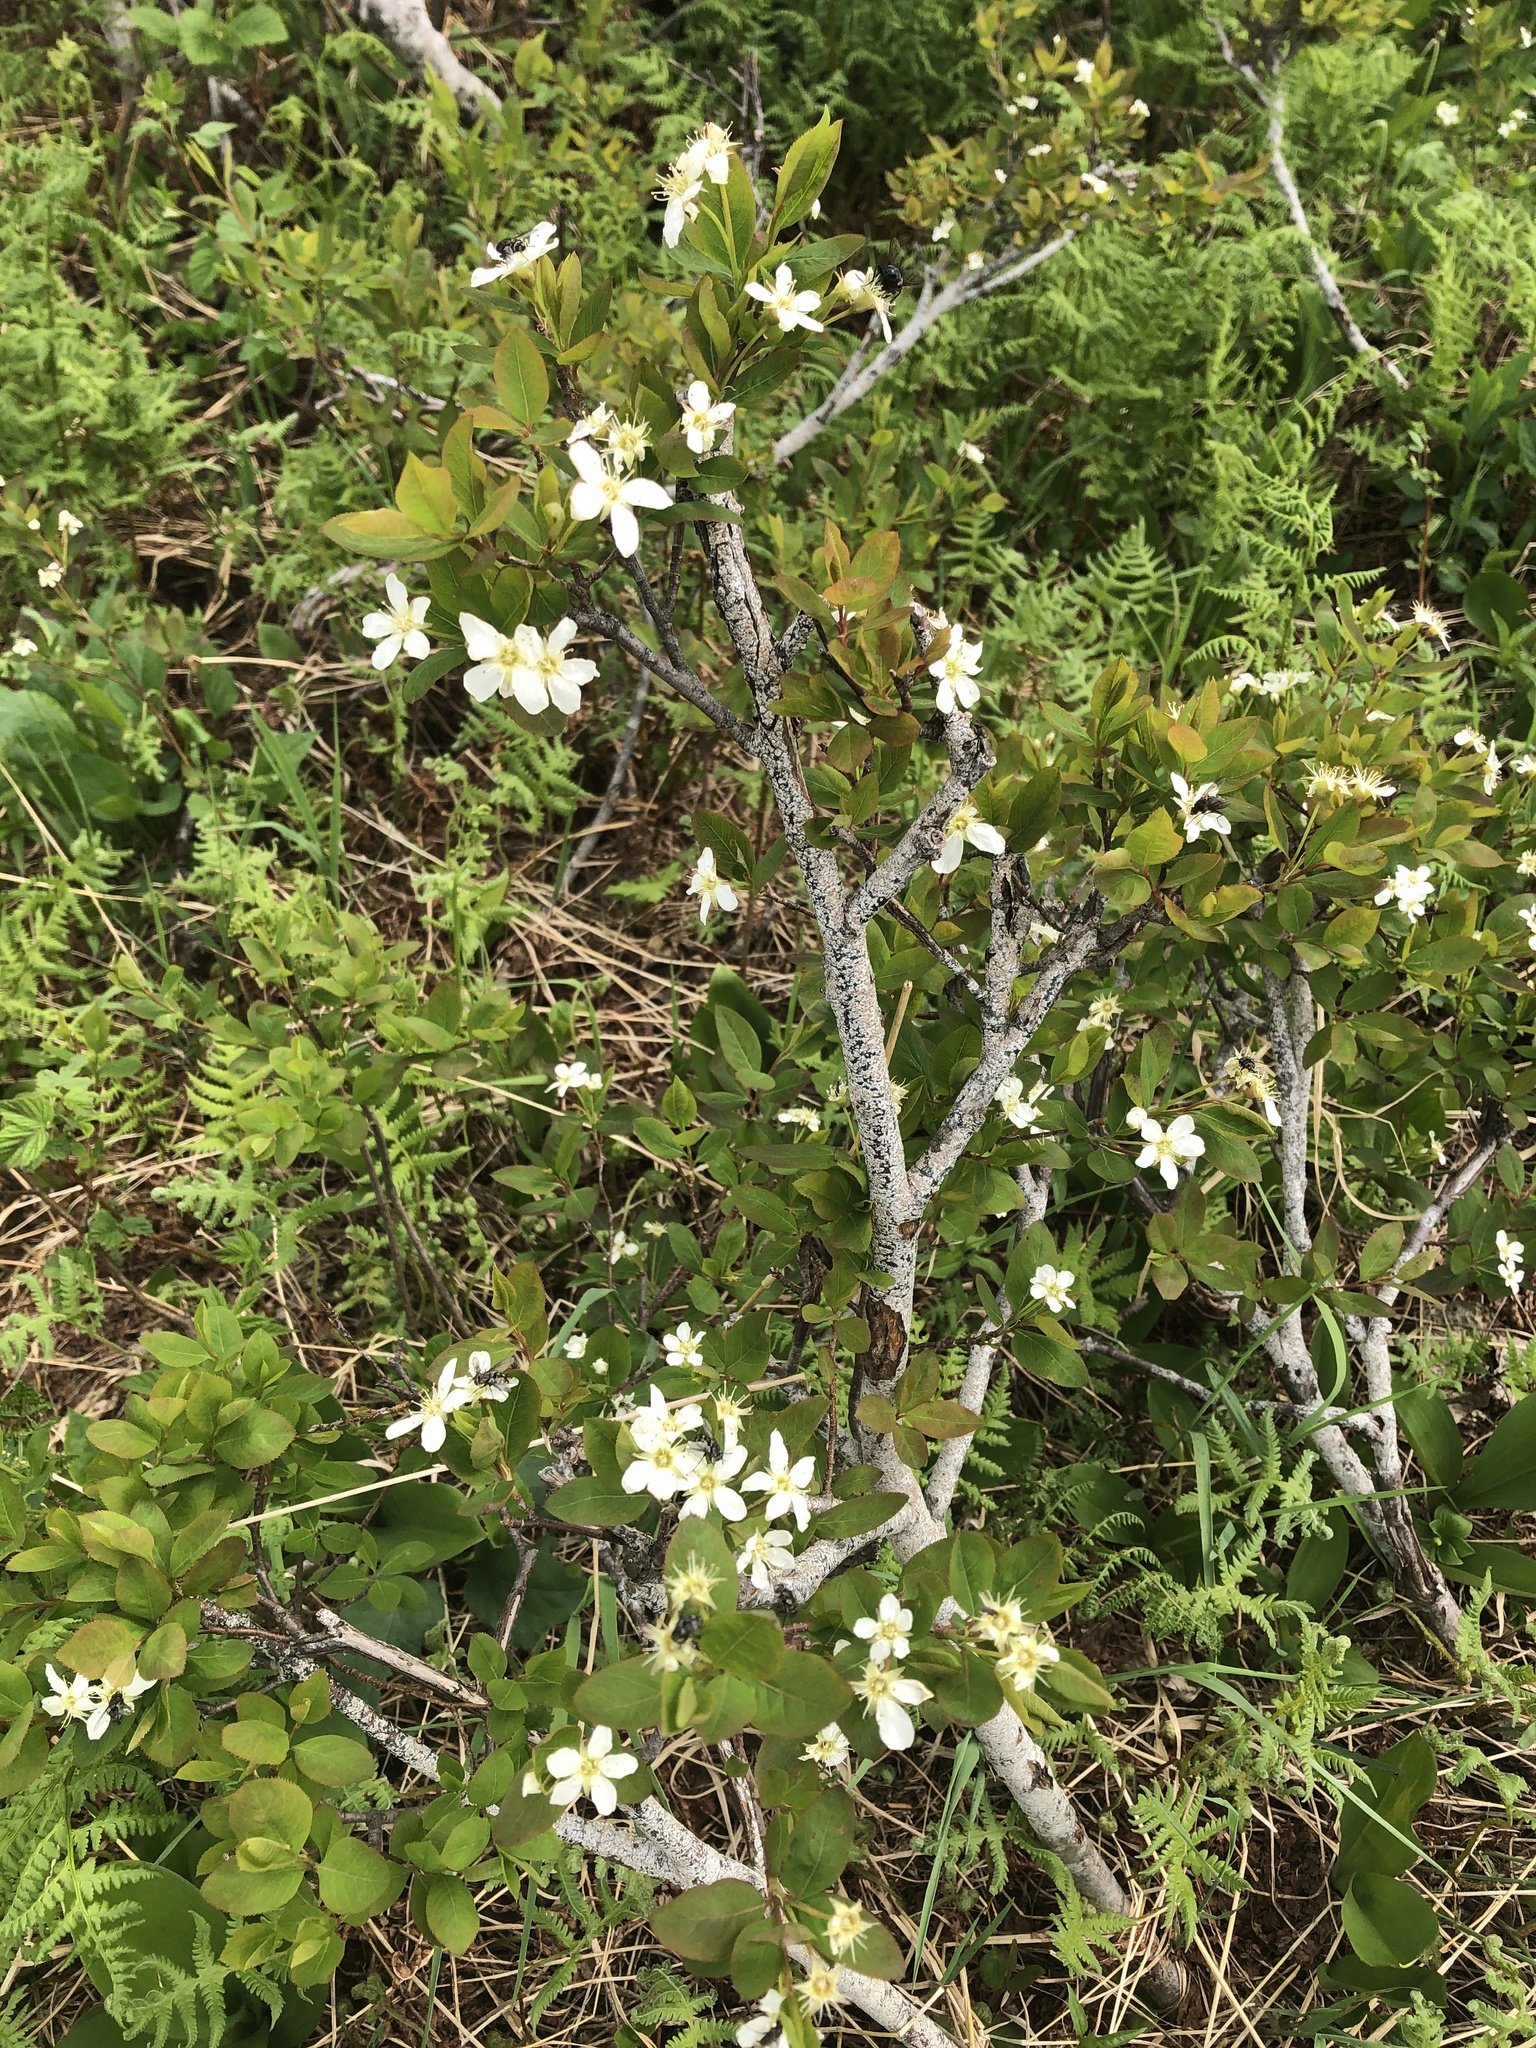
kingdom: Plantae
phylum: Tracheophyta
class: Magnoliopsida
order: Rosales
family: Rosaceae
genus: Amelanchier
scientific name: Amelanchier bartramiana
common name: Mountain serviceberry
